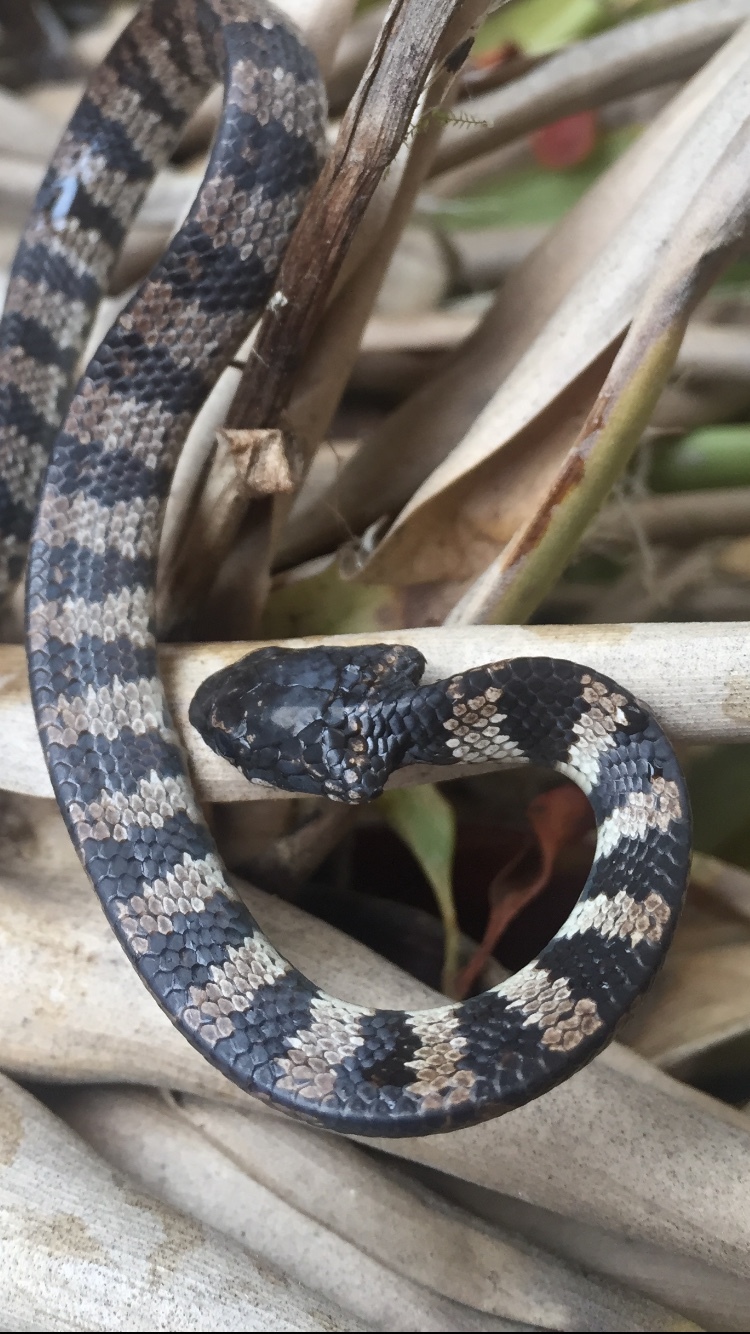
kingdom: Animalia
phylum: Chordata
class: Squamata
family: Colubridae
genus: Dipsas
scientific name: Dipsas elegans
